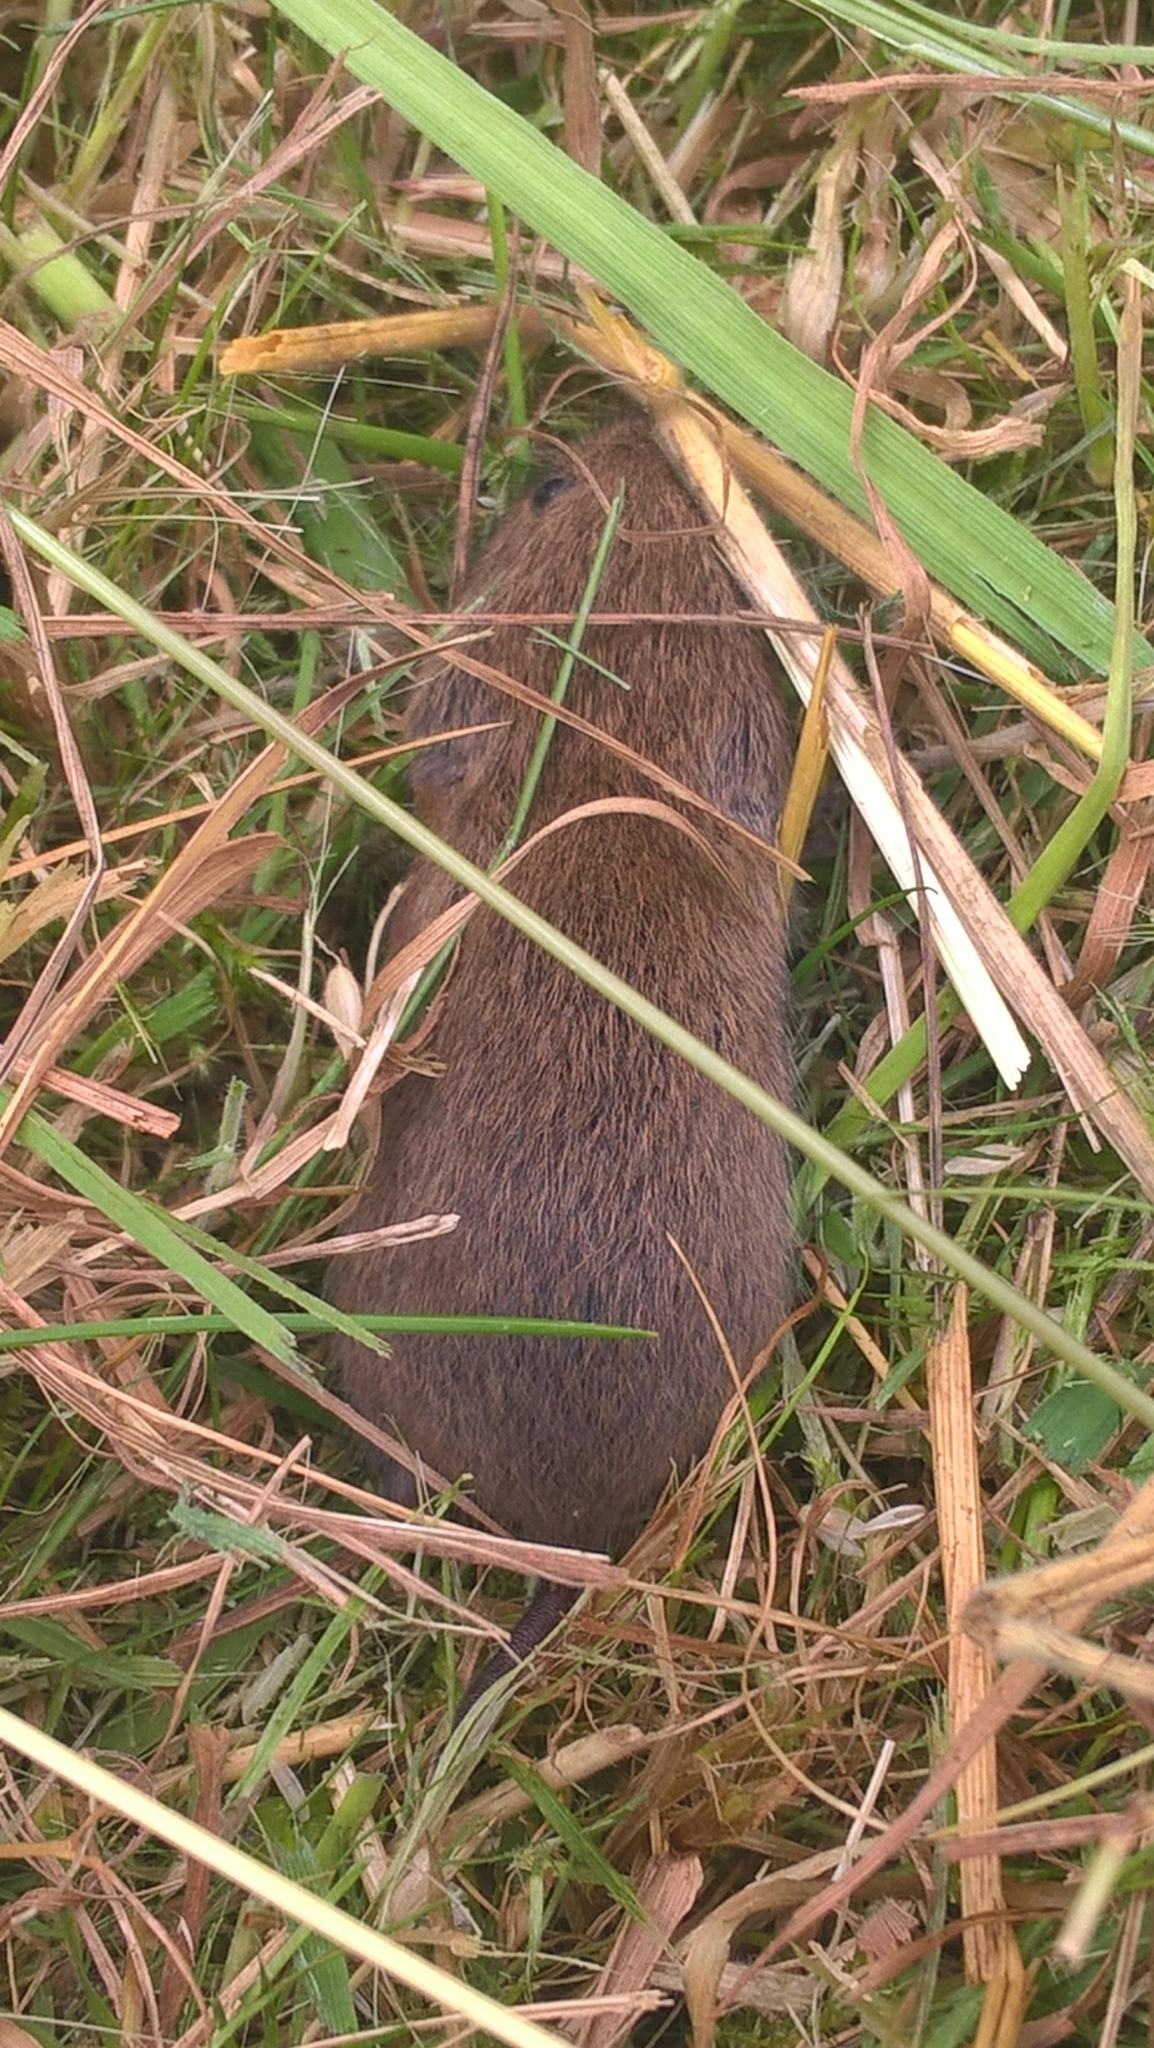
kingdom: Animalia
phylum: Chordata
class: Mammalia
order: Rodentia
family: Cricetidae
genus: Microtus
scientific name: Microtus agrestis
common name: Field vole
